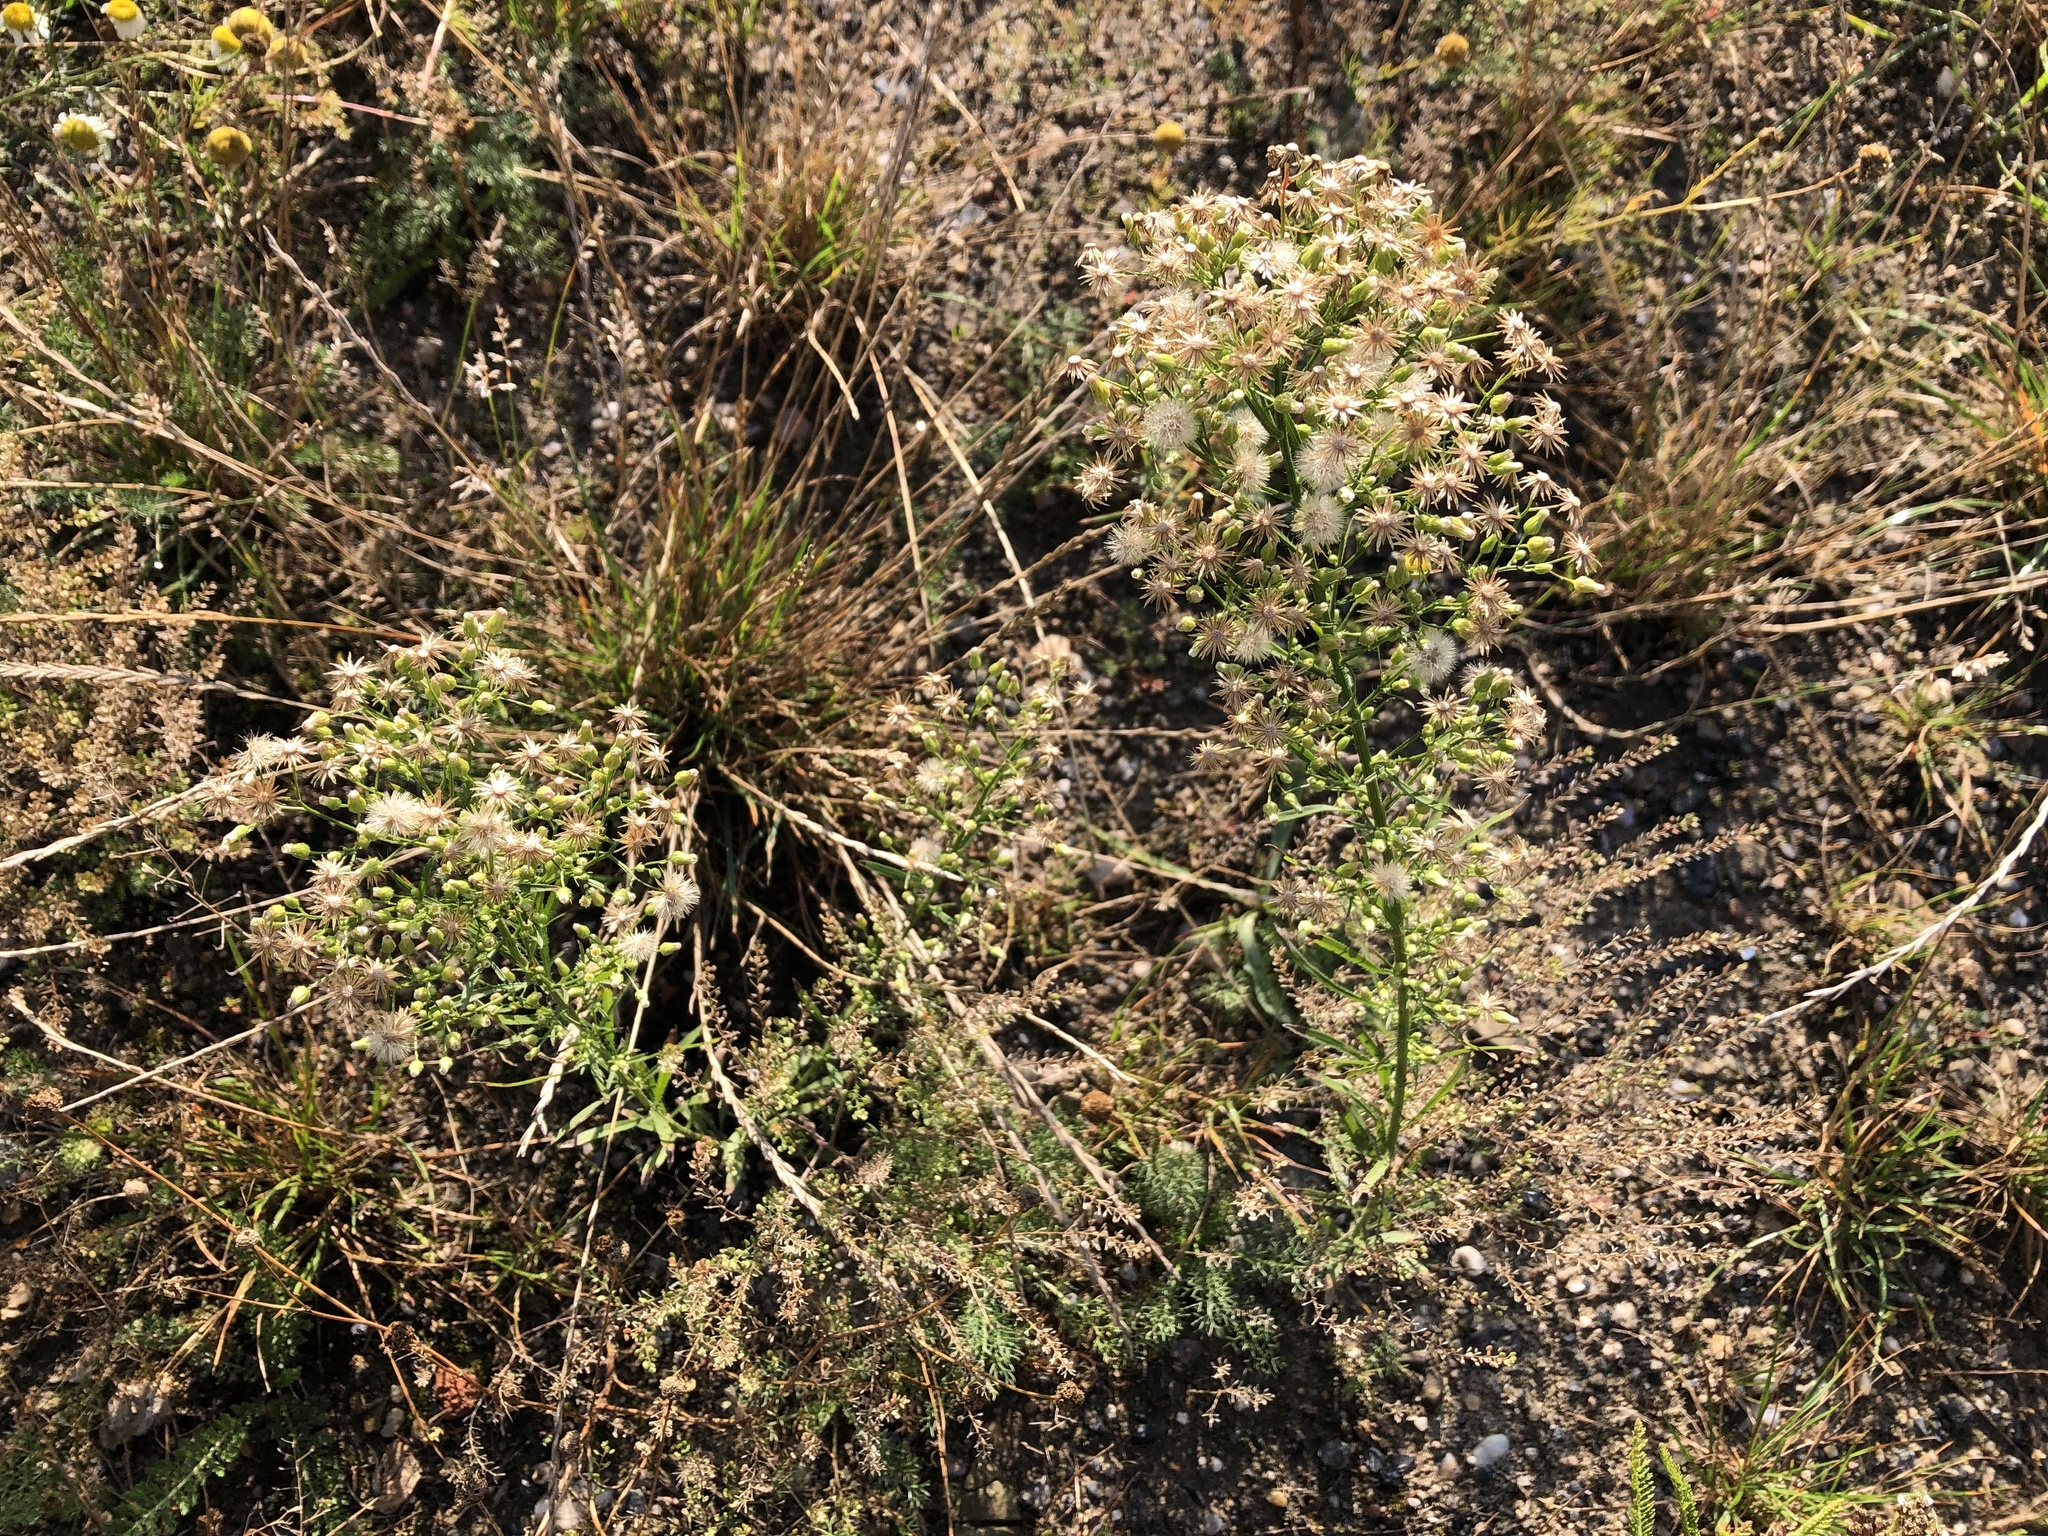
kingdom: Plantae
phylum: Tracheophyta
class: Magnoliopsida
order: Asterales
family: Asteraceae
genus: Erigeron
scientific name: Erigeron canadensis
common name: Canadian fleabane
